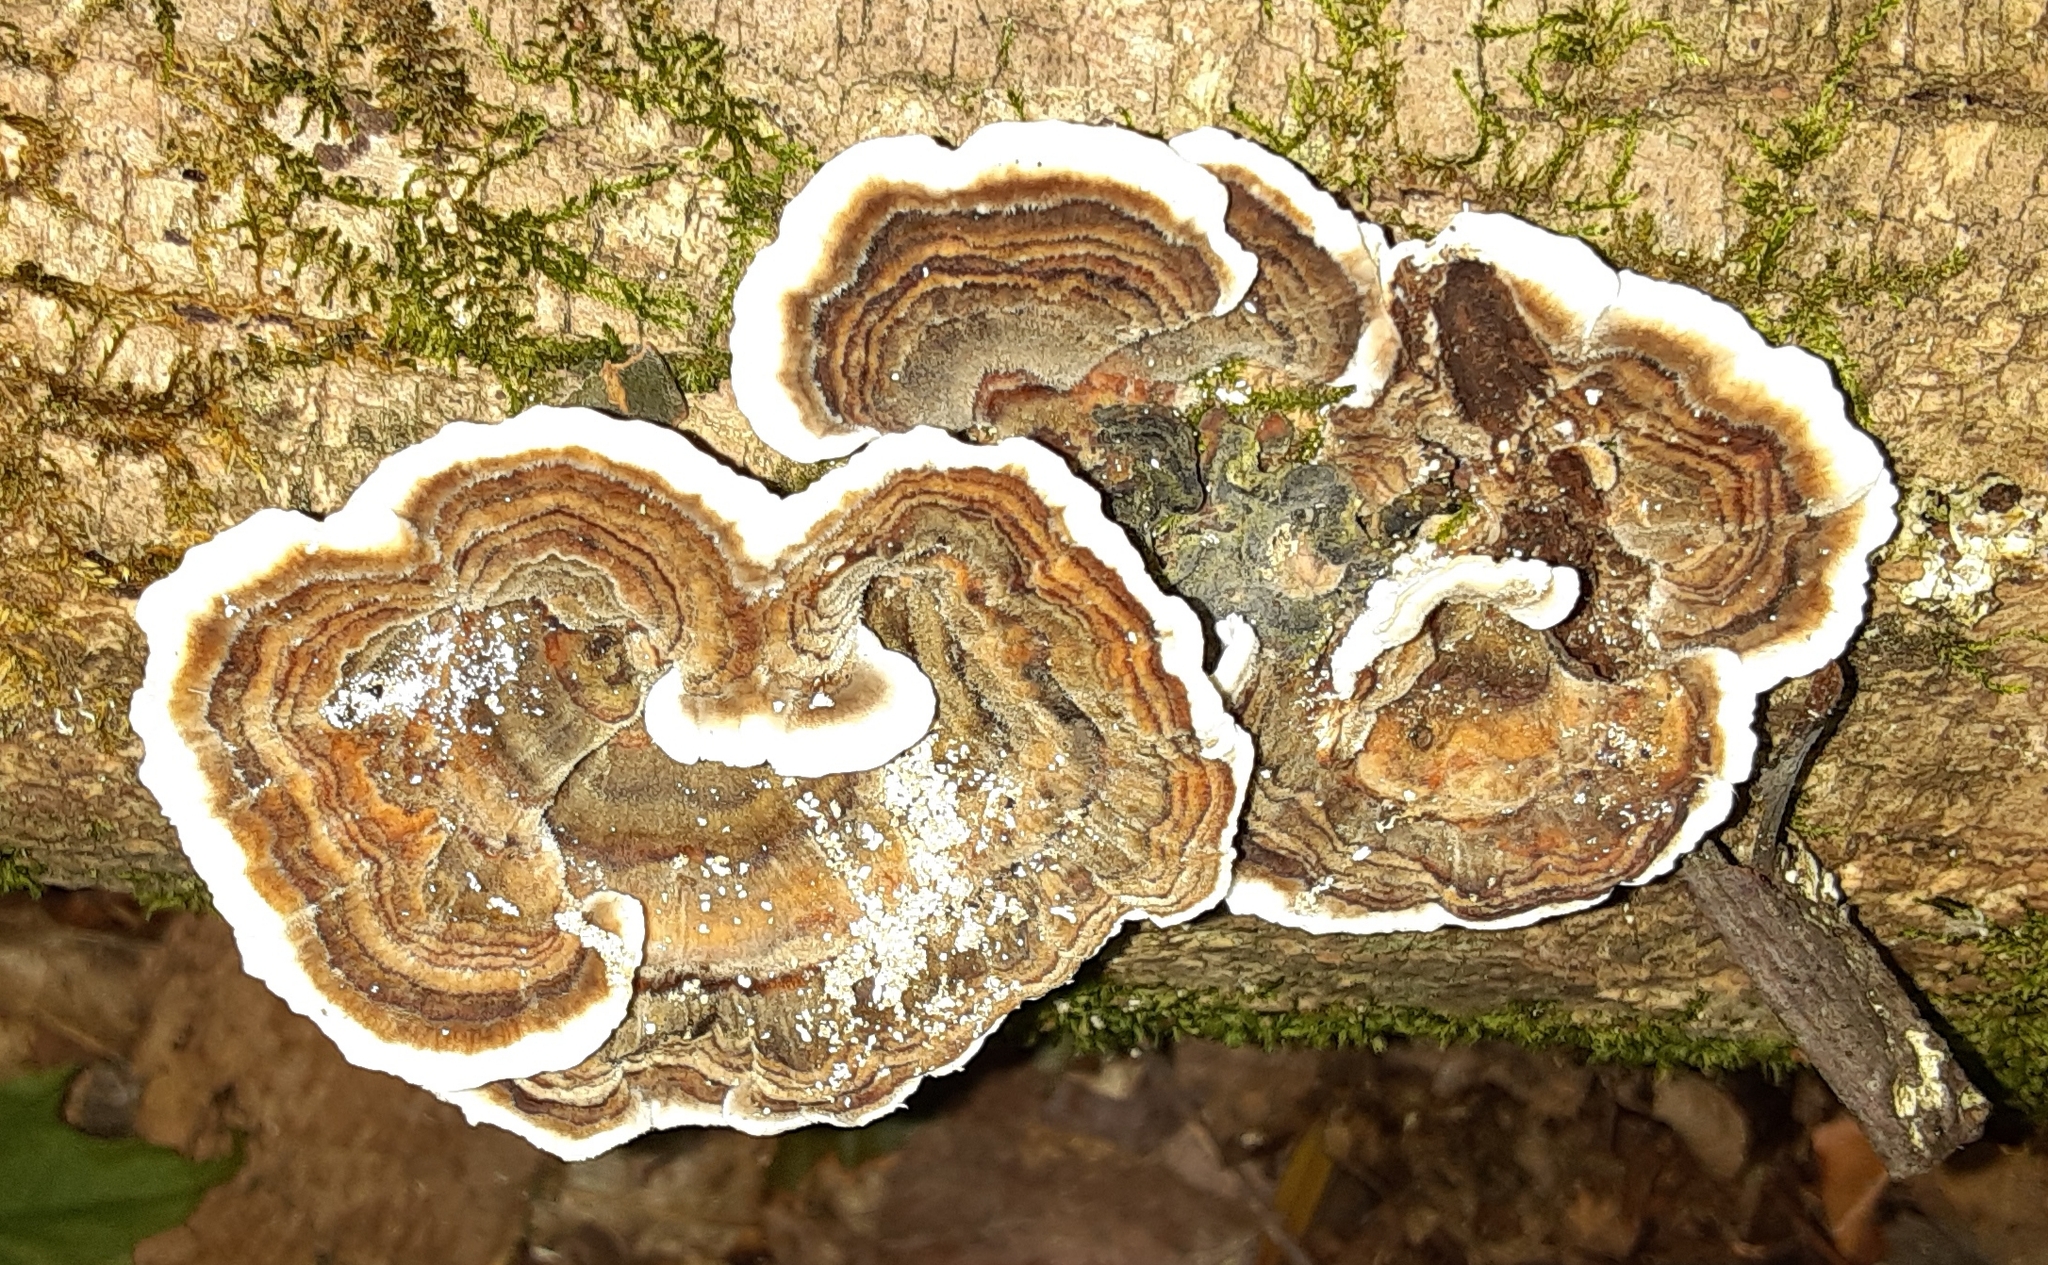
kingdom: Fungi
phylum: Basidiomycota
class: Agaricomycetes
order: Polyporales
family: Polyporaceae
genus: Trametes
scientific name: Trametes versicolor
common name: Turkeytail
